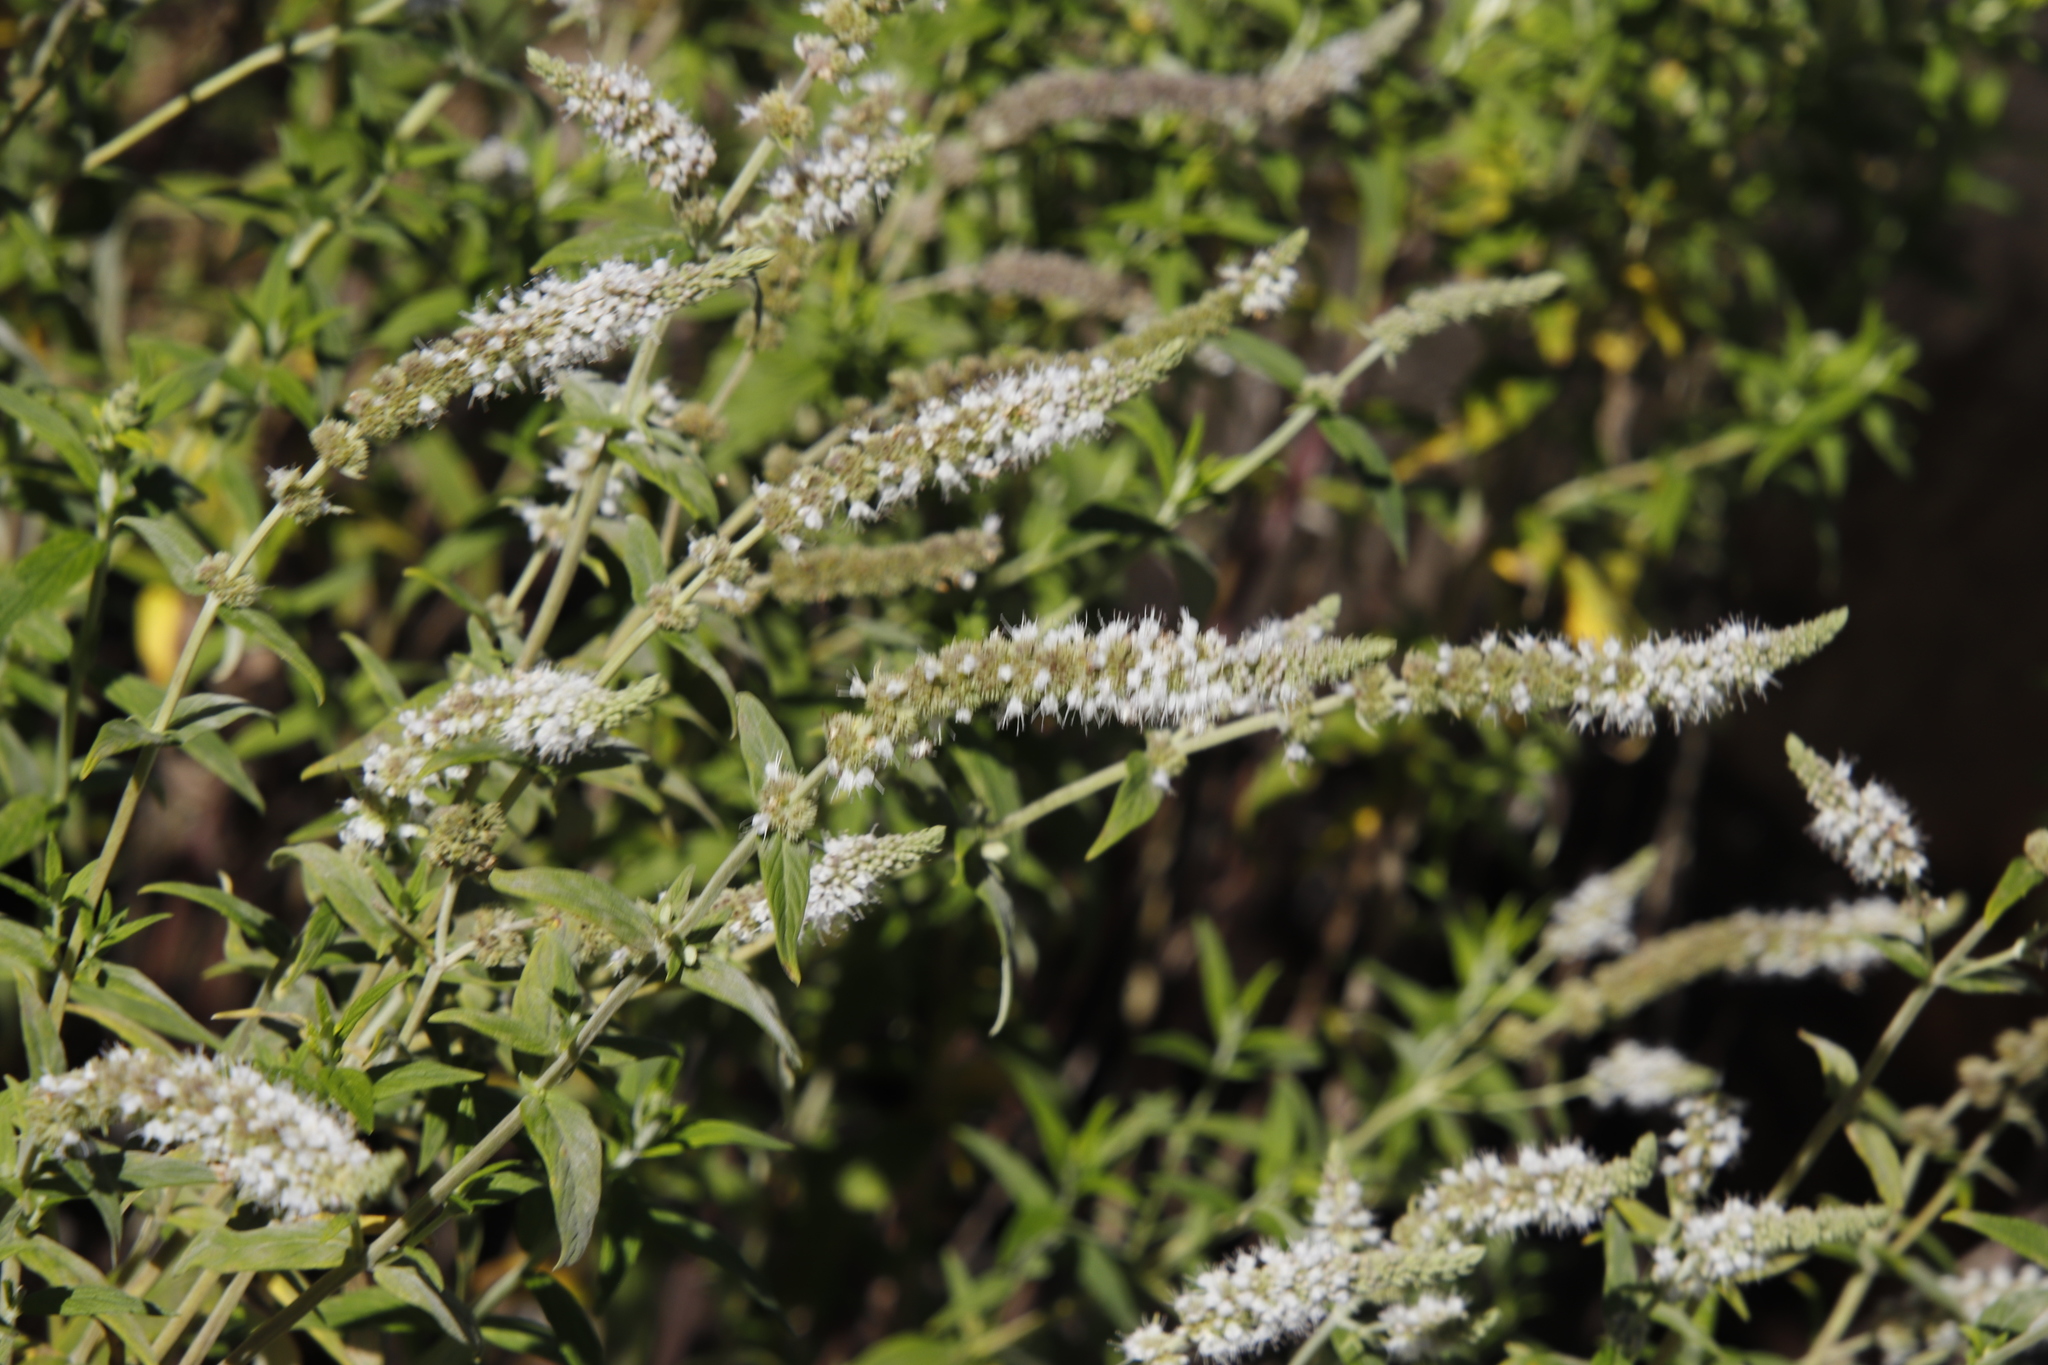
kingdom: Plantae
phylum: Tracheophyta
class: Magnoliopsida
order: Lamiales
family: Lamiaceae
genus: Mentha
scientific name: Mentha longifolia
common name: Horse mint
